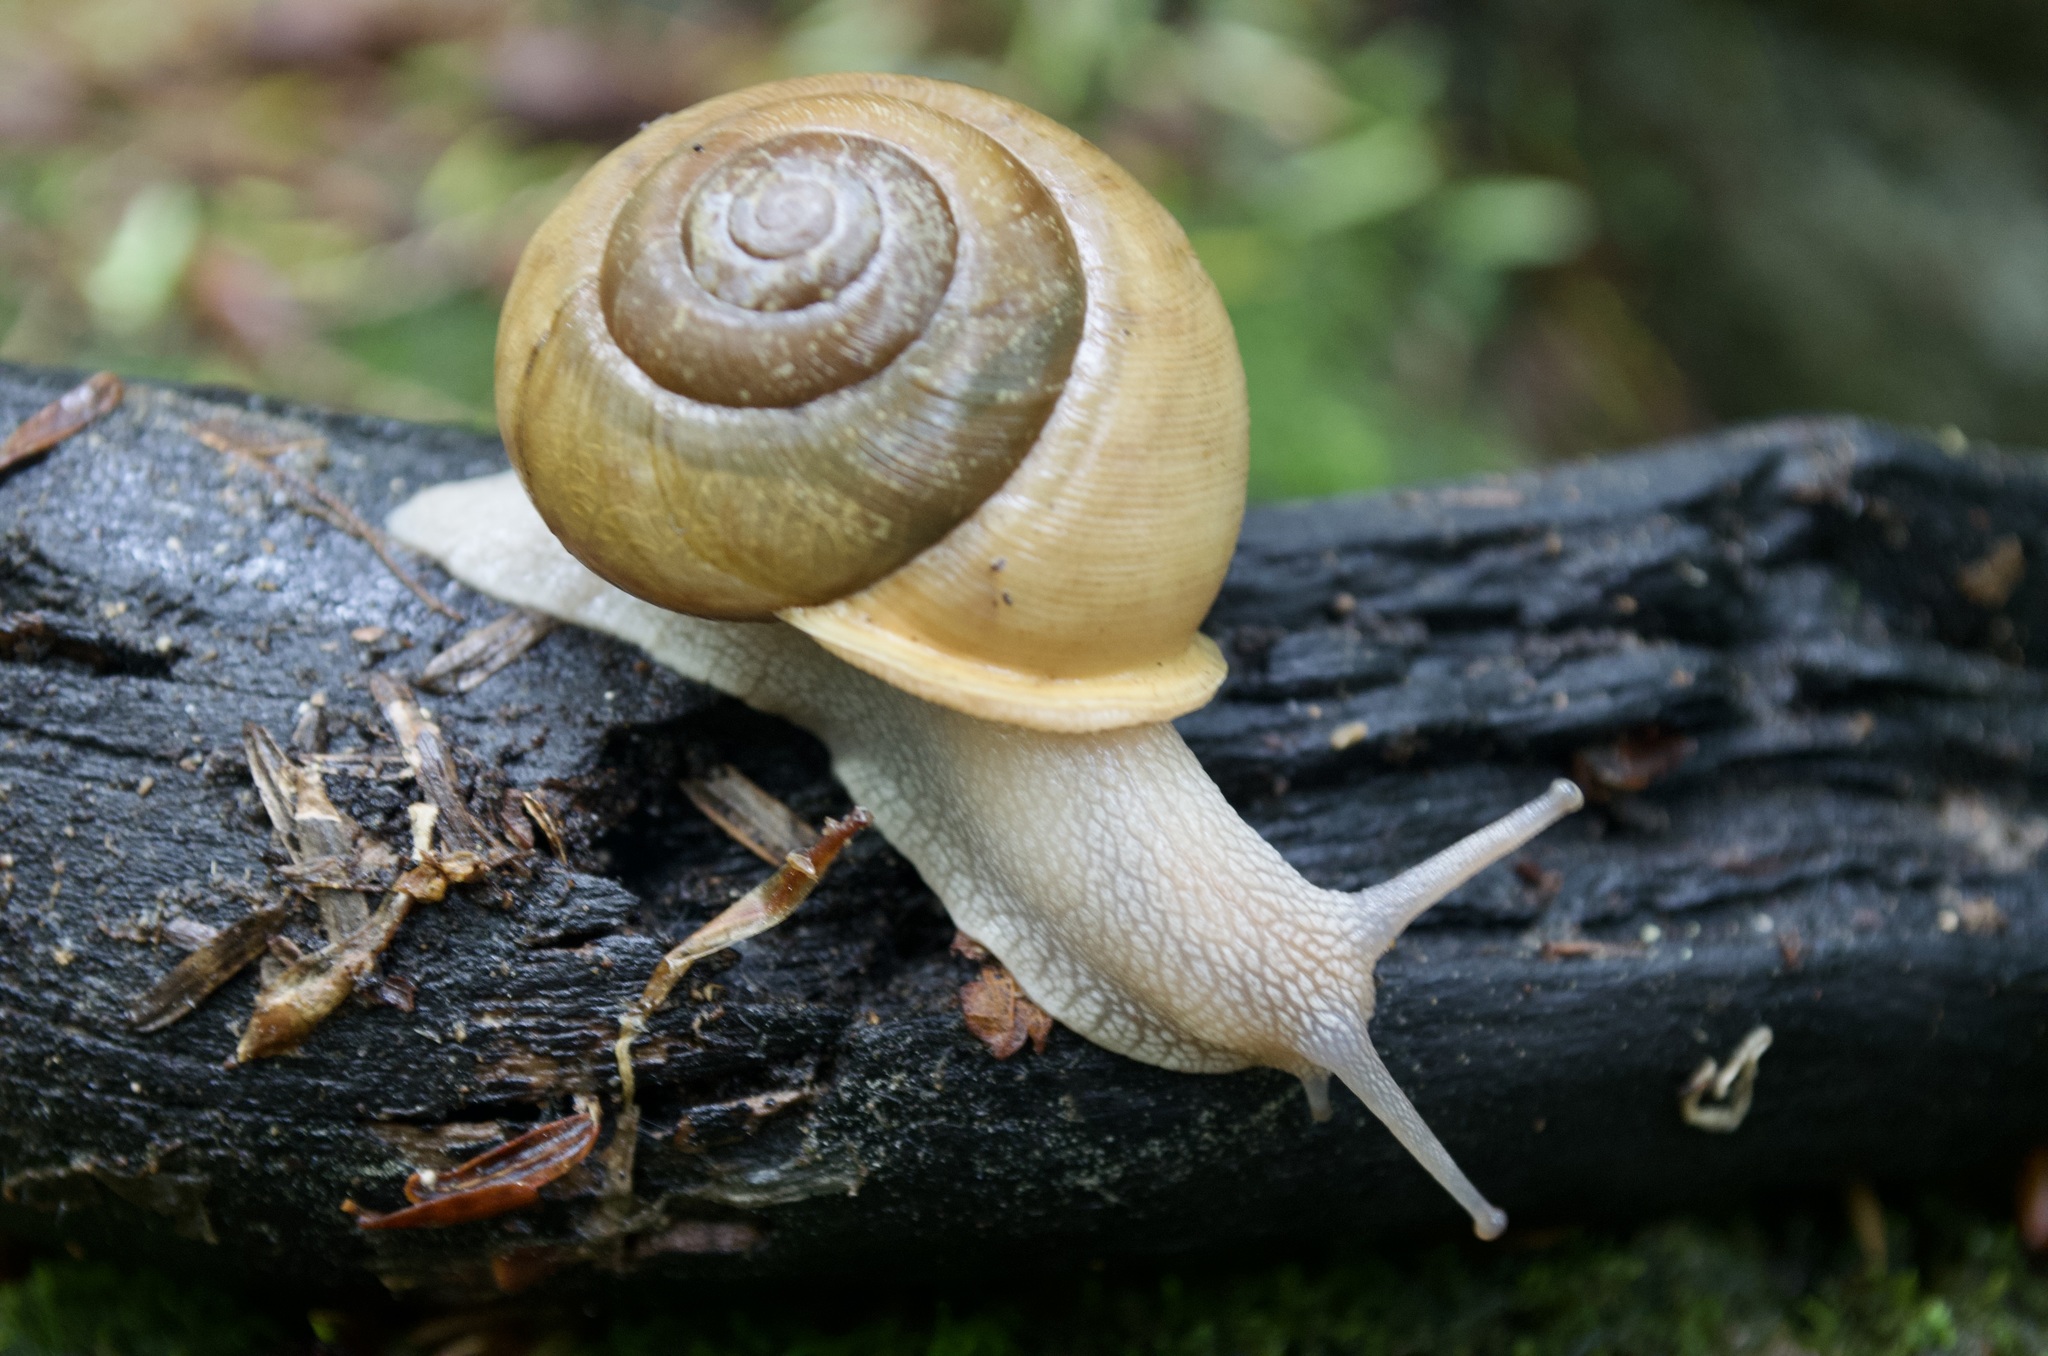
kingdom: Animalia
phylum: Mollusca
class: Gastropoda
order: Stylommatophora
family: Polygyridae
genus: Neohelix
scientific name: Neohelix albolabris
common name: Eastern whitelip
